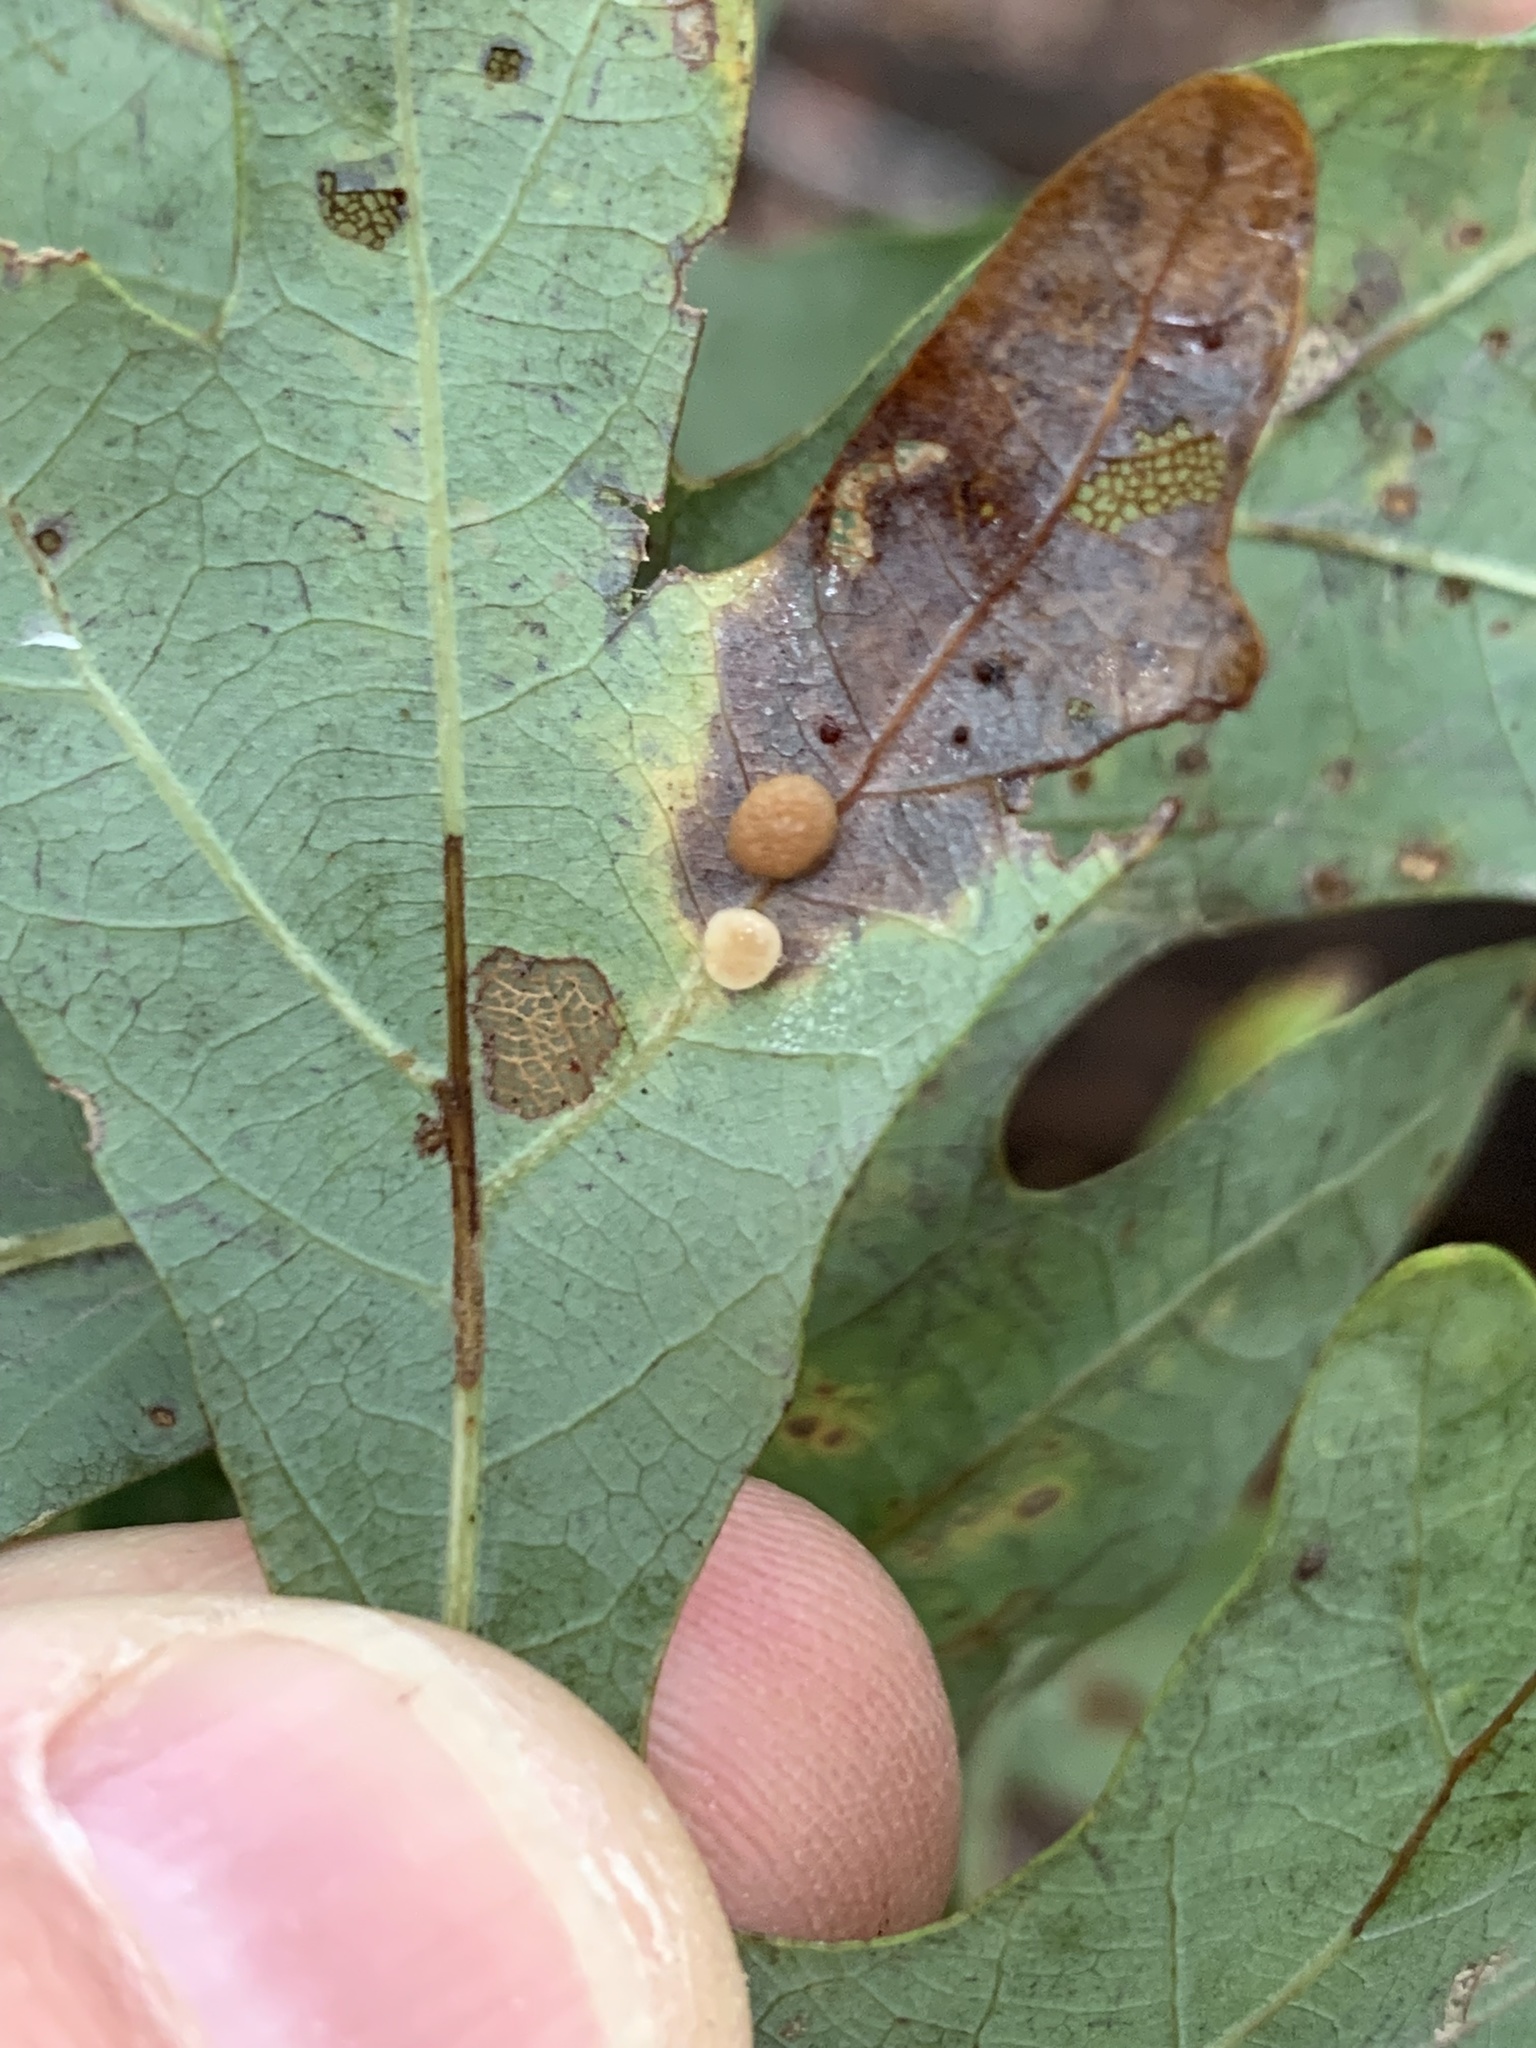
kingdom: Animalia
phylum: Arthropoda
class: Insecta
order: Hymenoptera
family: Cynipidae
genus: Phylloteras
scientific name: Phylloteras
